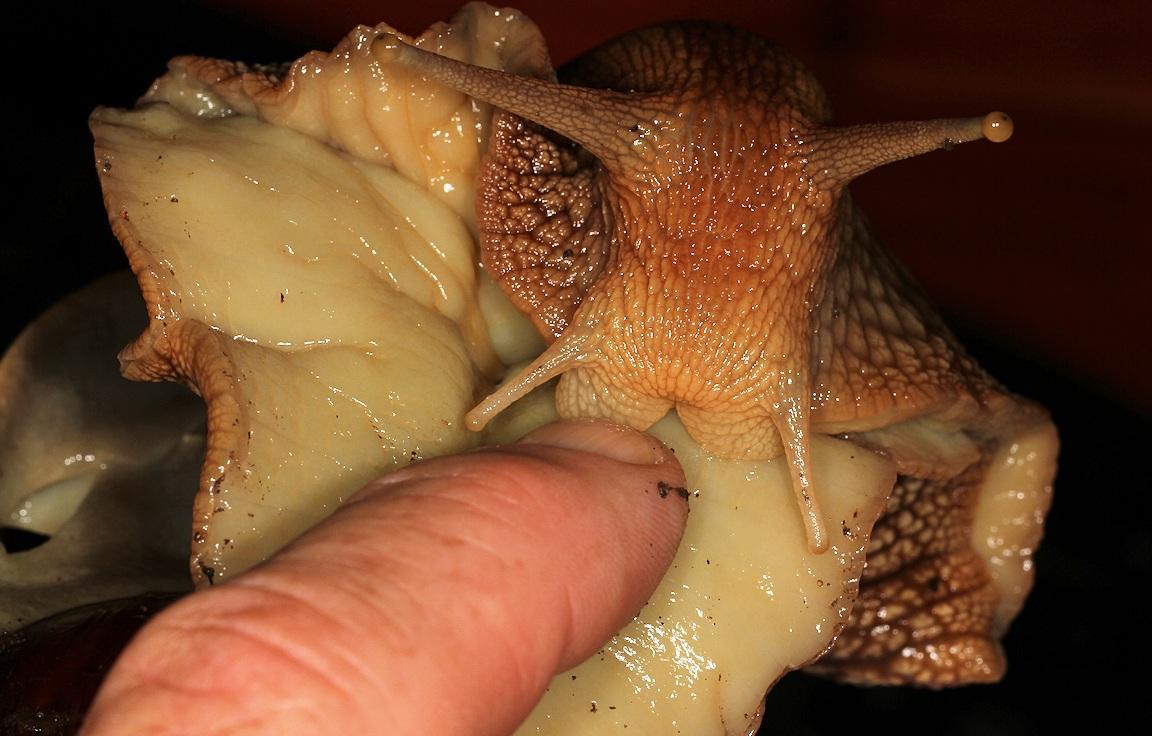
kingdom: Animalia
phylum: Mollusca
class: Gastropoda
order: Stylommatophora
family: Achatinidae
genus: Lissachatina
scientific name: Lissachatina immaculata
